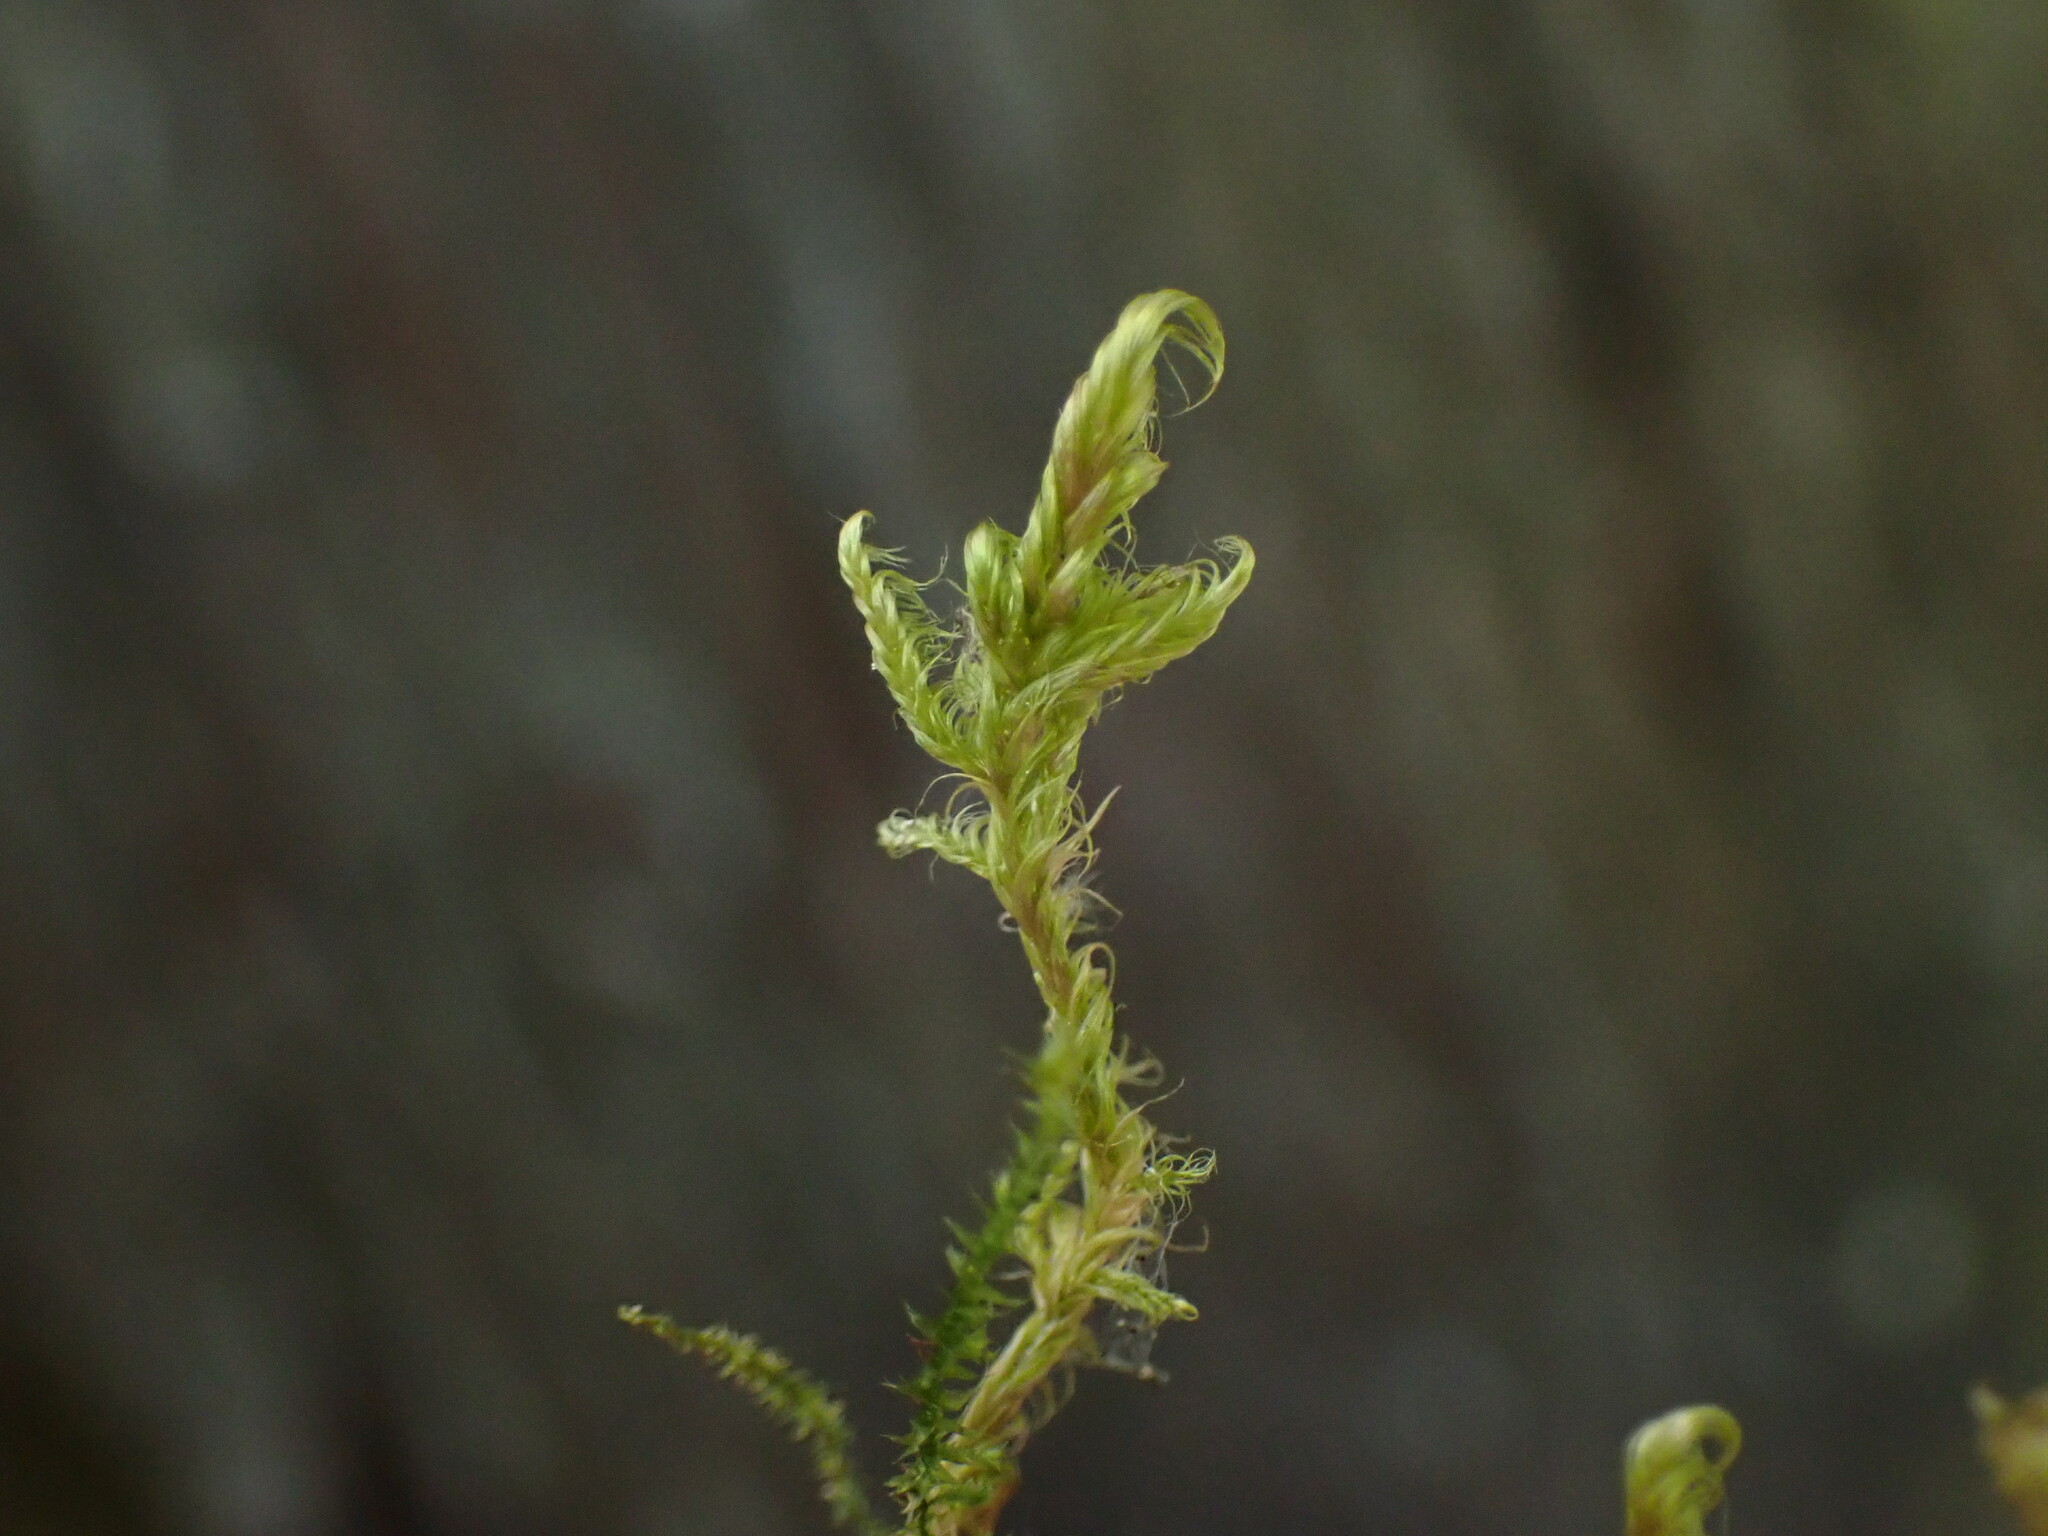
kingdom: Plantae
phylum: Bryophyta
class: Bryopsida
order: Hypnales
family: Scorpidiaceae
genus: Sanionia
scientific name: Sanionia uncinata
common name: Sickle moss
